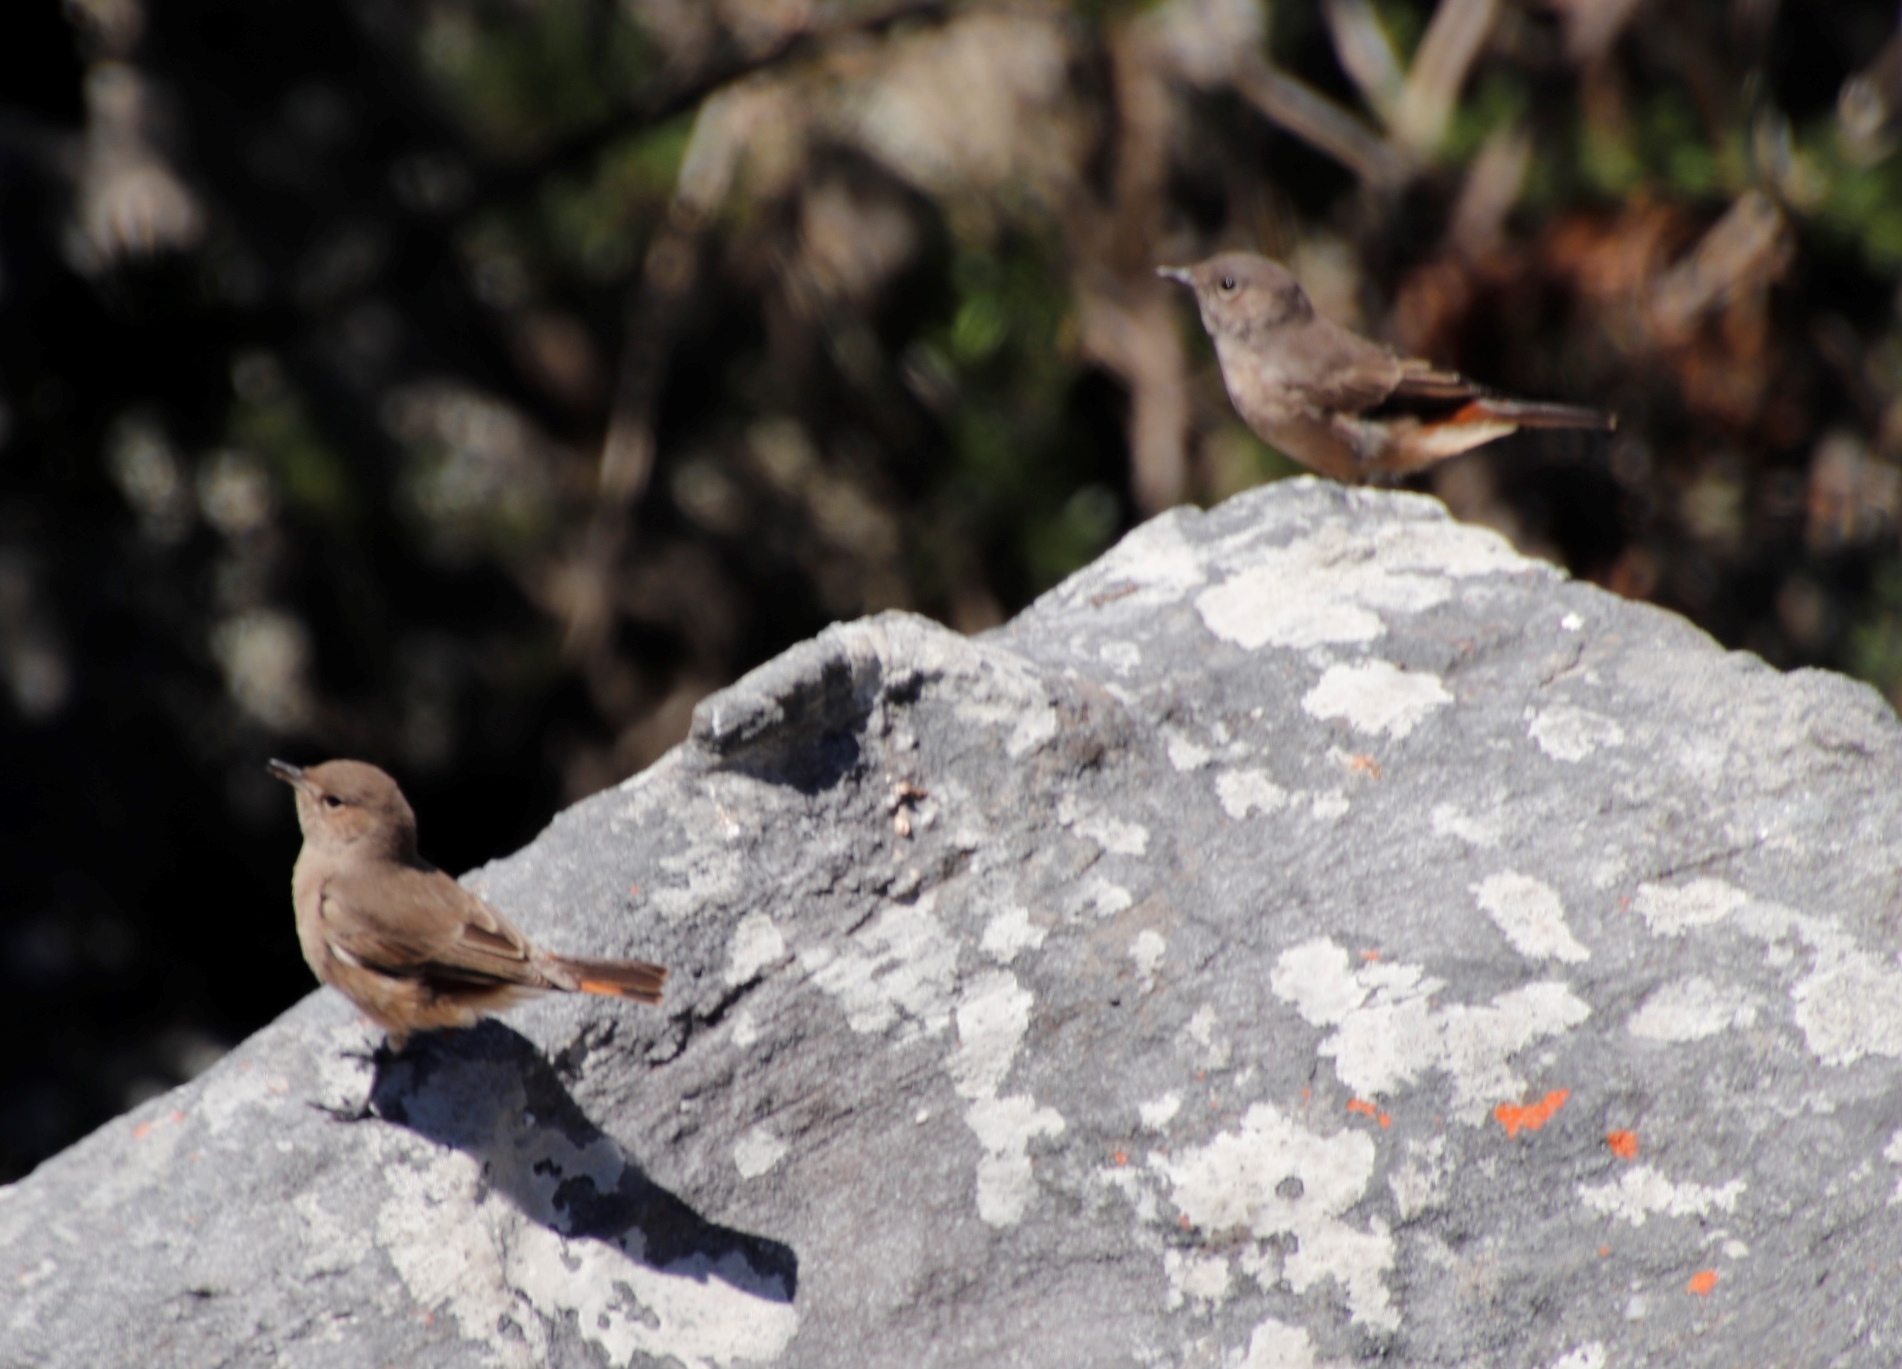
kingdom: Animalia
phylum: Chordata
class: Aves
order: Passeriformes
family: Muscicapidae
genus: Oenanthe
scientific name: Oenanthe familiaris
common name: Familiar chat
